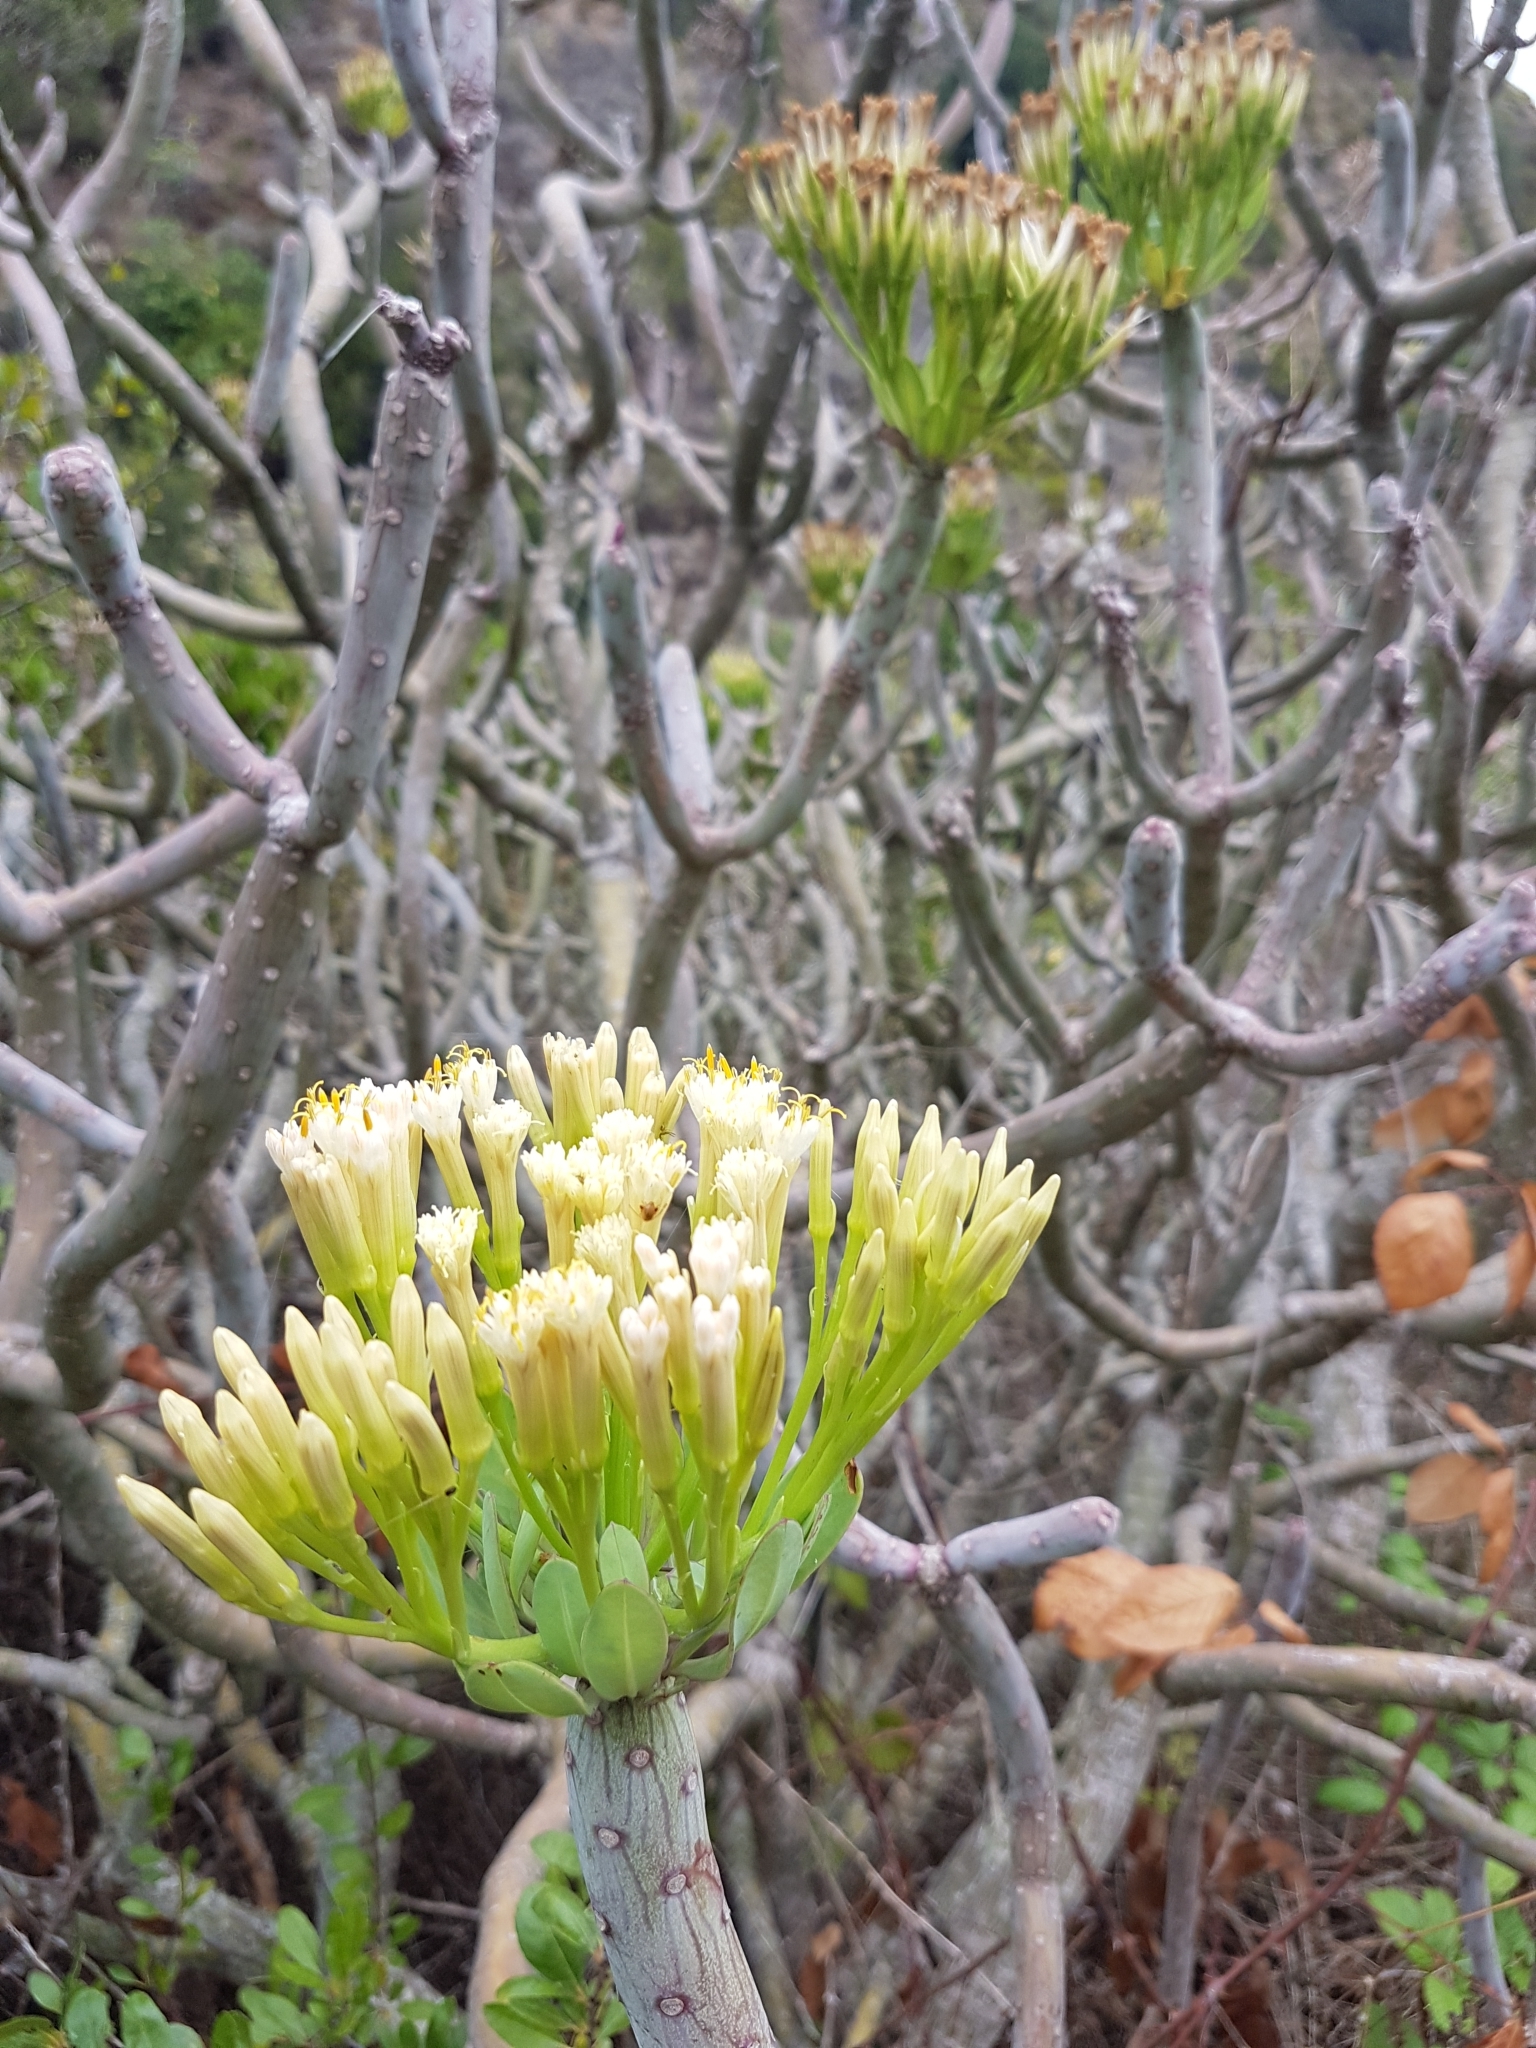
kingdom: Plantae
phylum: Tracheophyta
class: Magnoliopsida
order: Asterales
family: Asteraceae
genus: Kleinia
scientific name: Kleinia neriifolia
